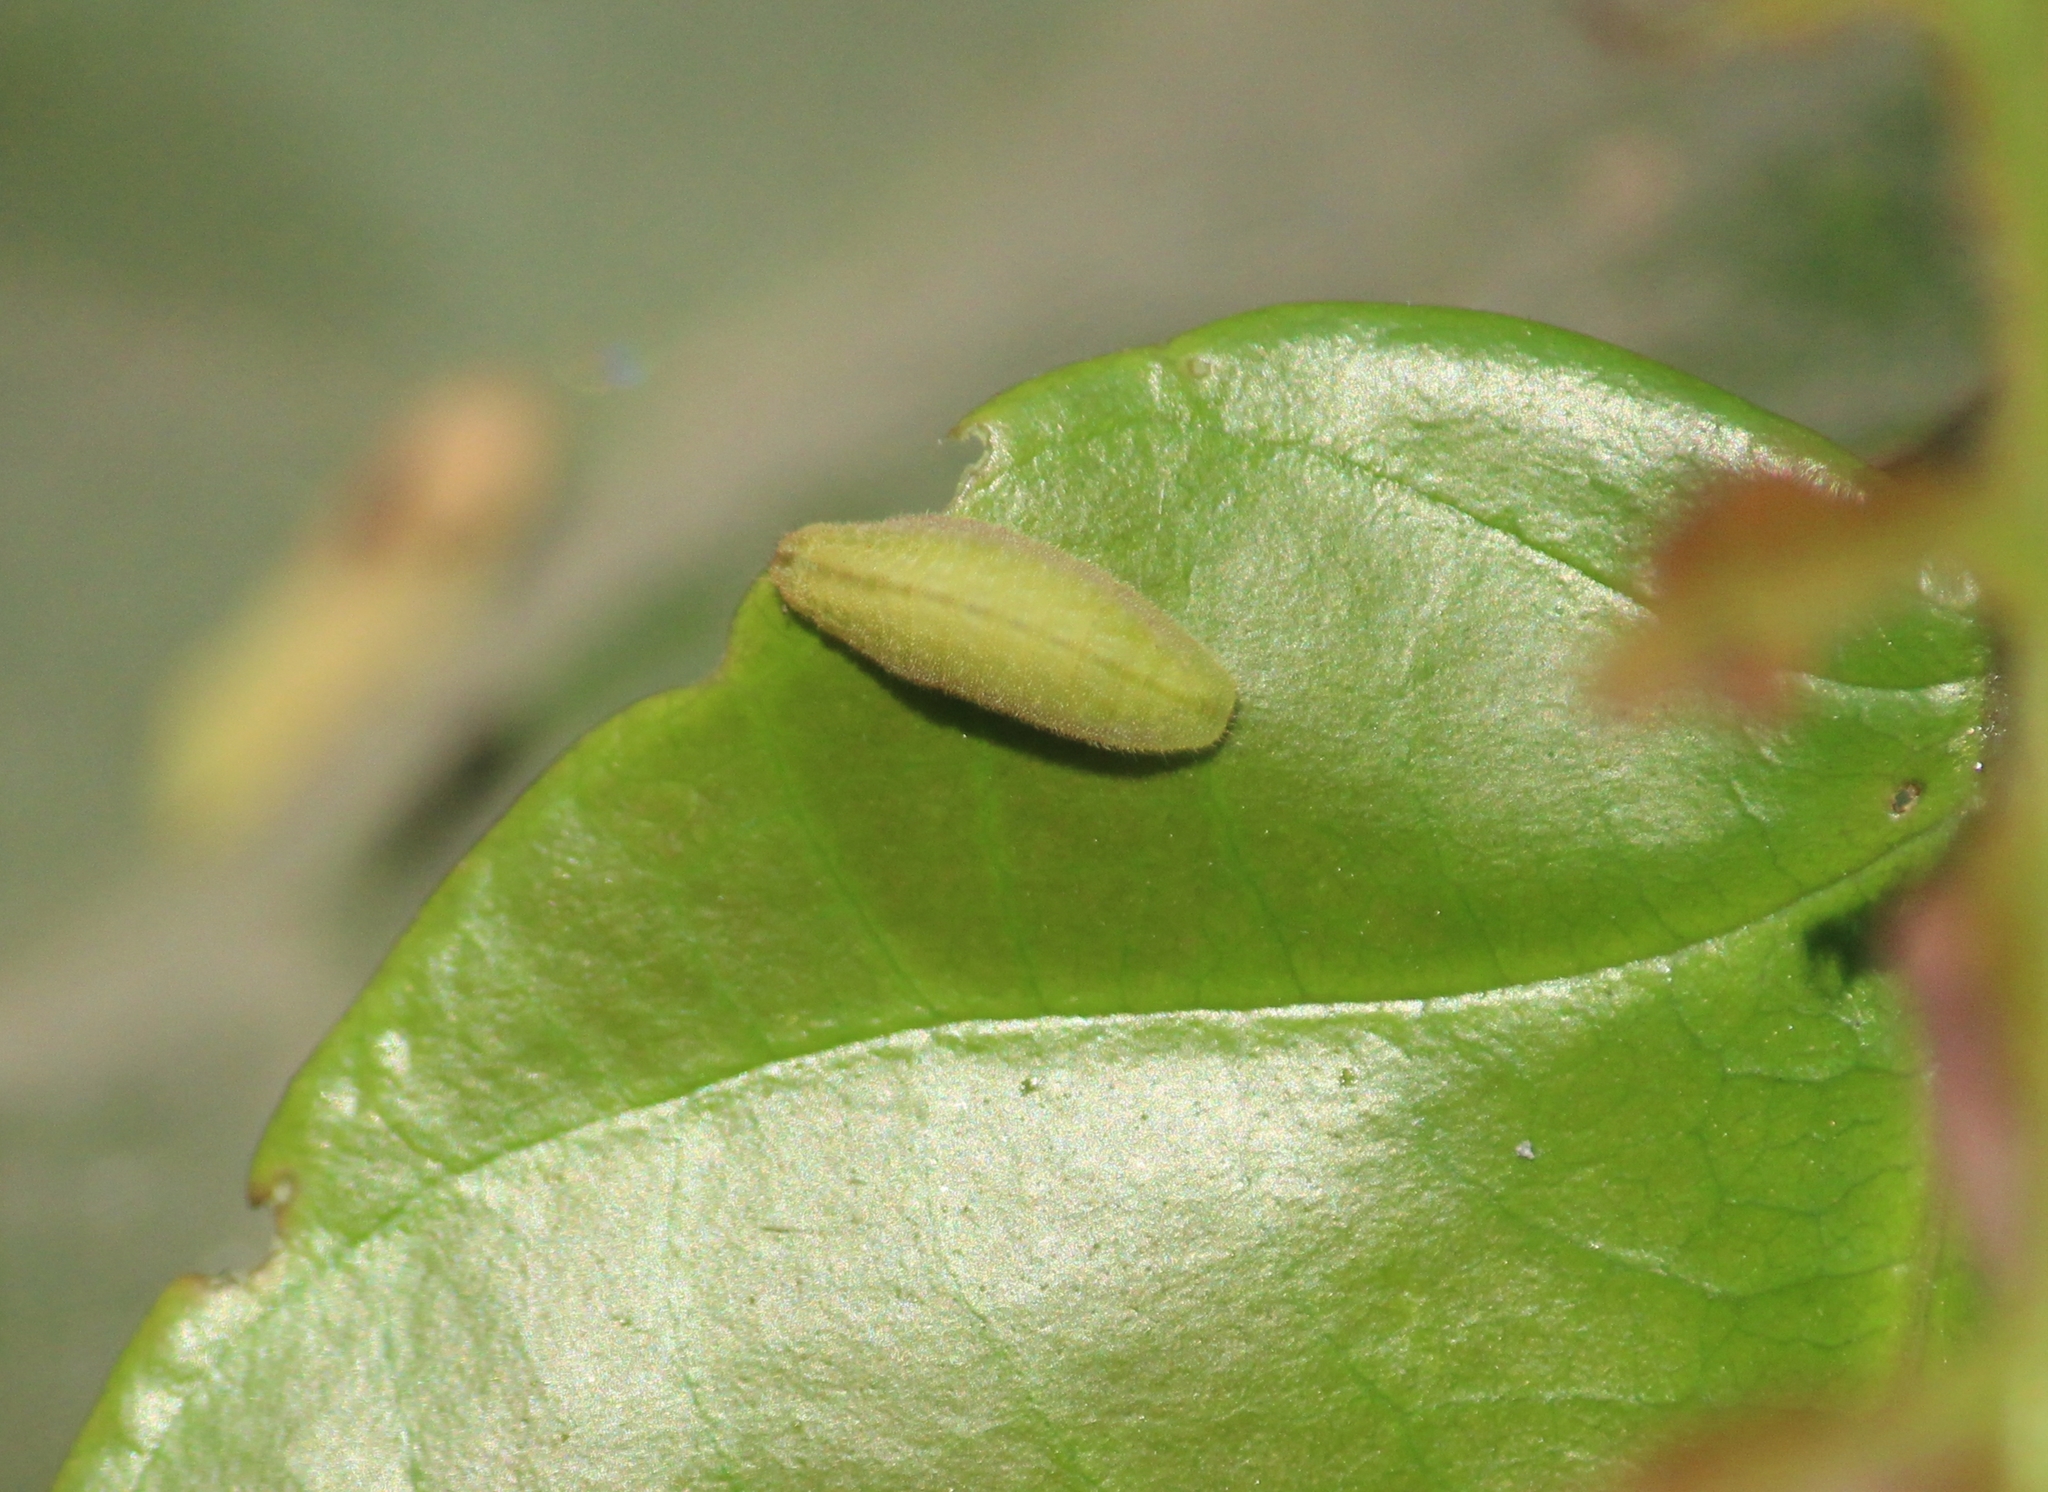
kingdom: Animalia
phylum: Arthropoda
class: Insecta
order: Lepidoptera
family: Lycaenidae
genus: Acytolepis
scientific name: Acytolepis puspa
